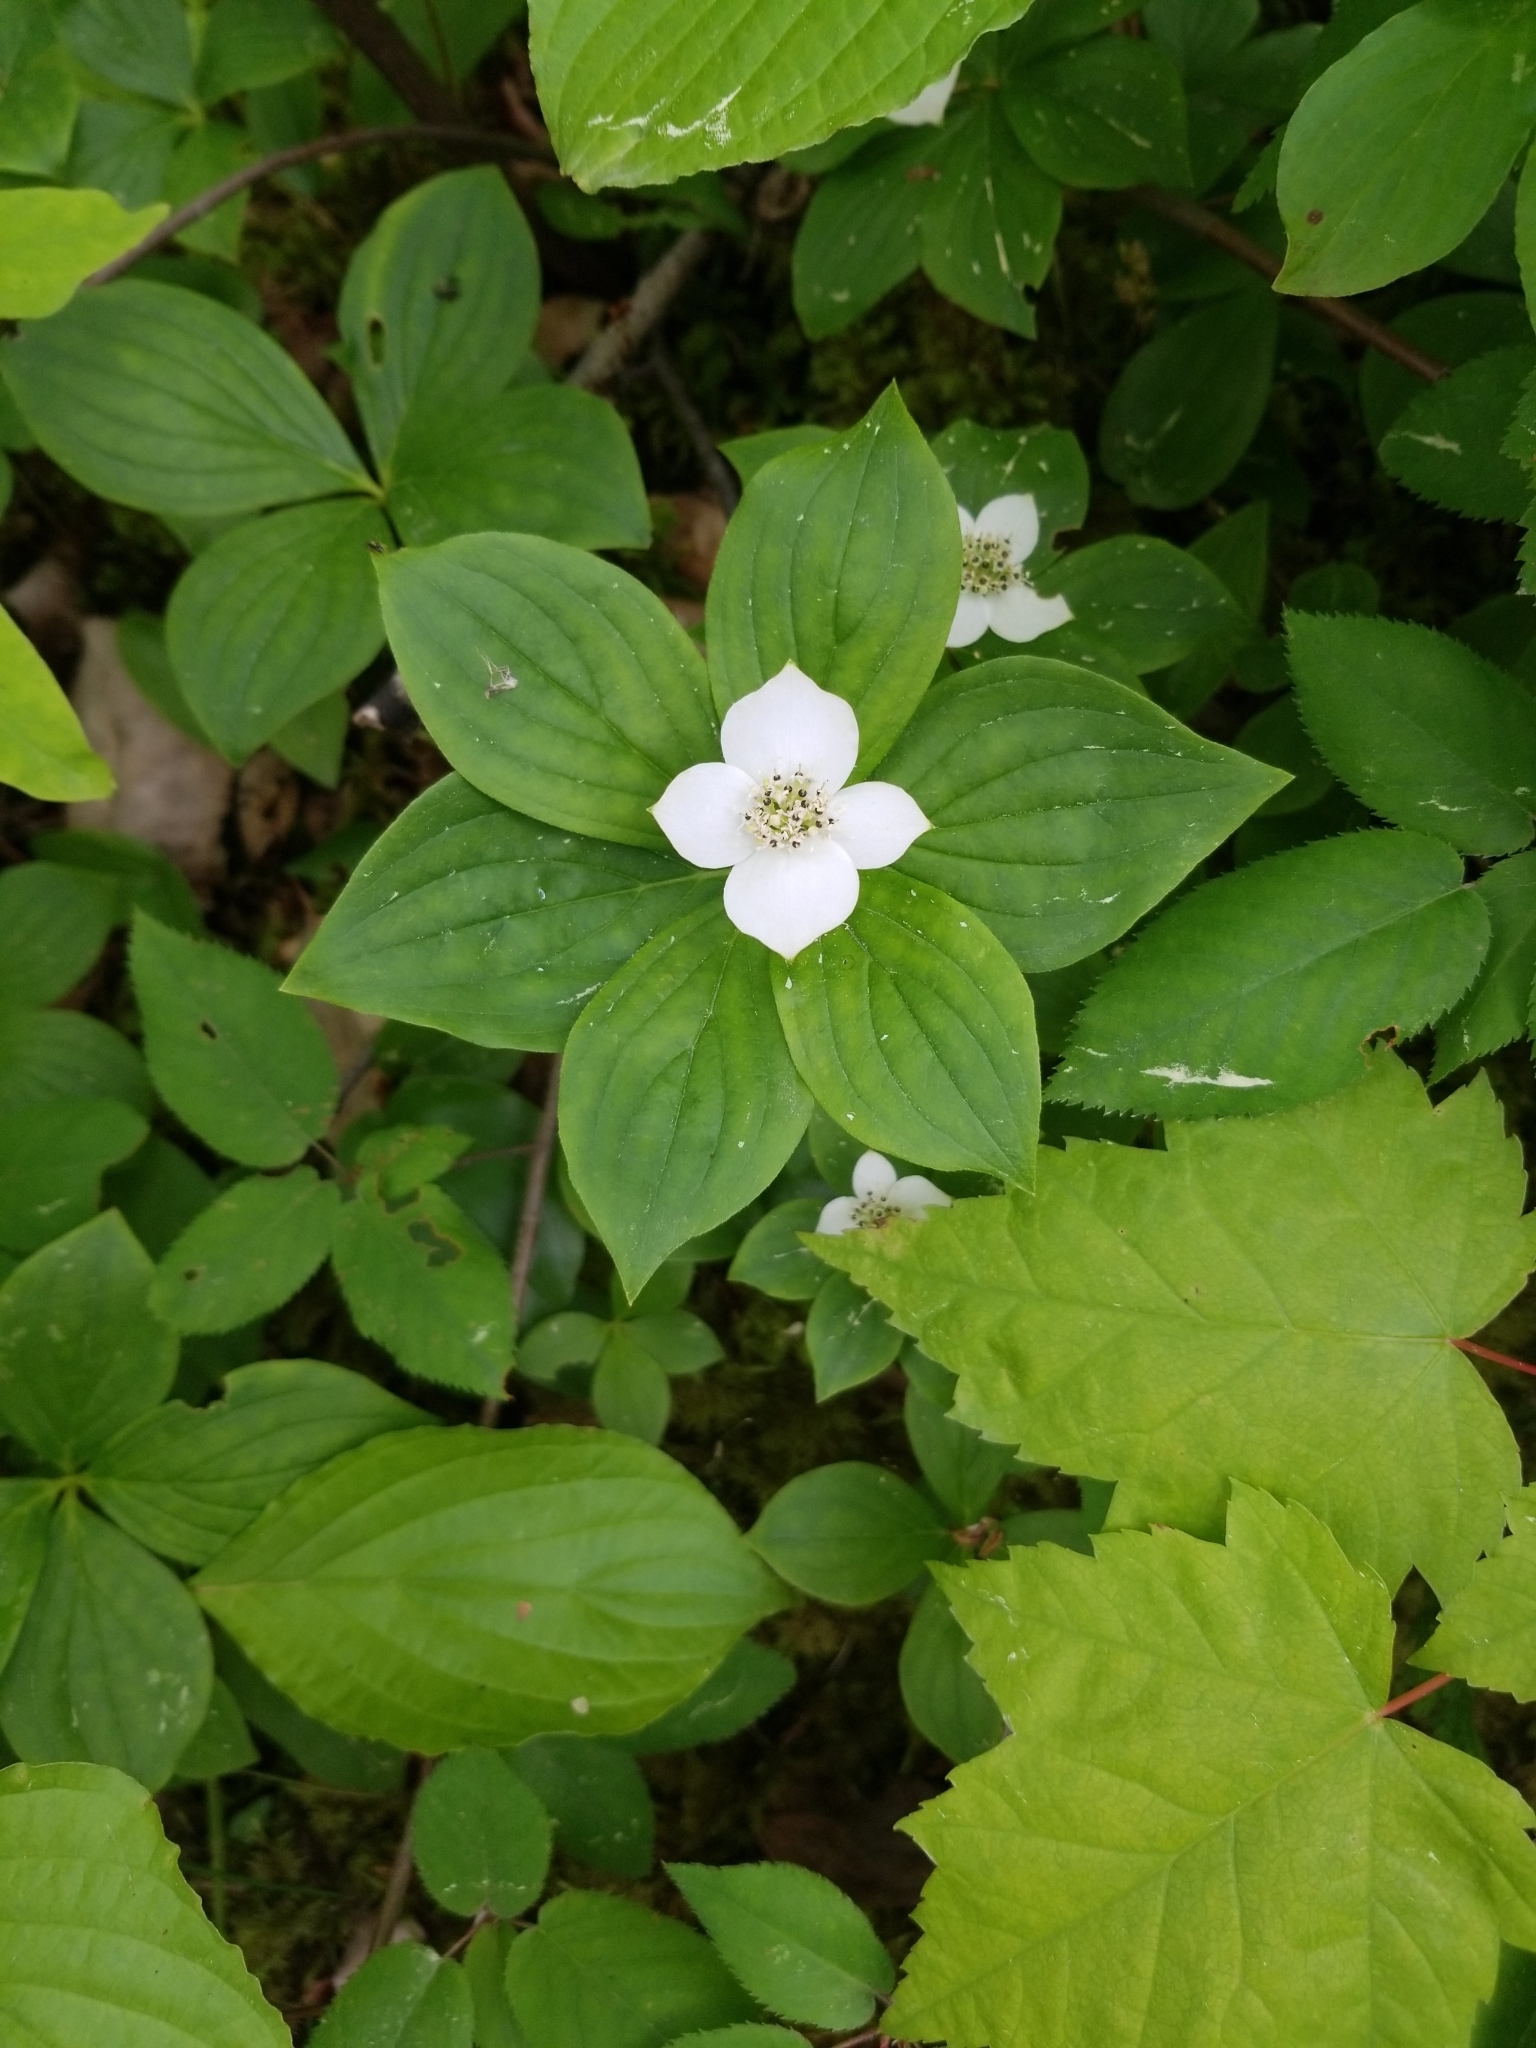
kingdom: Plantae
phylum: Tracheophyta
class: Magnoliopsida
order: Cornales
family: Cornaceae
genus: Cornus
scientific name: Cornus canadensis
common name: Creeping dogwood
